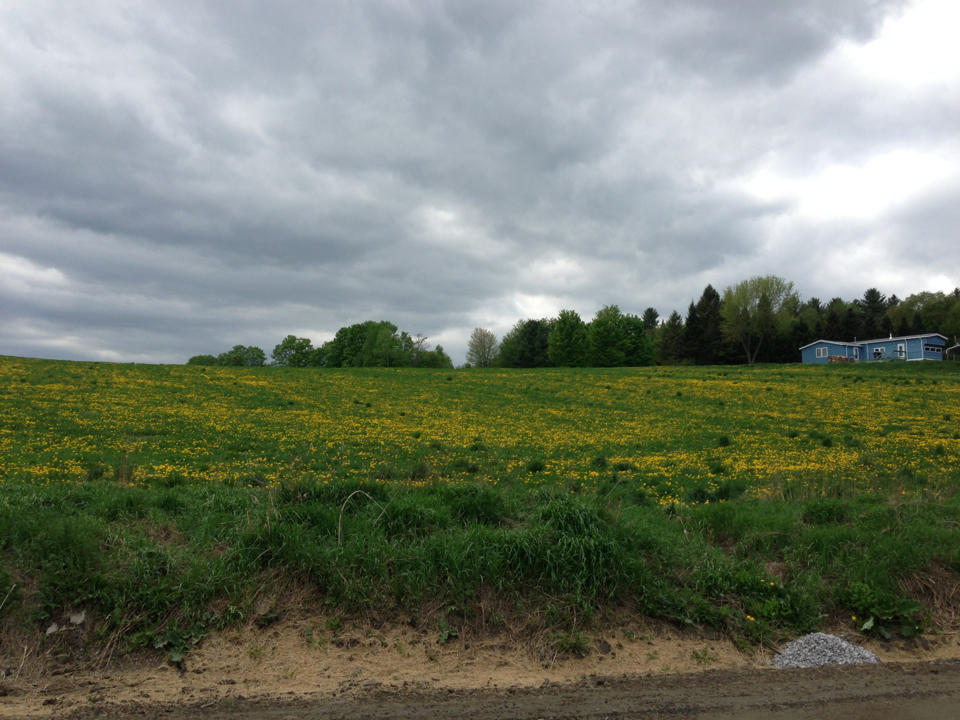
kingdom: Plantae
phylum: Tracheophyta
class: Magnoliopsida
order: Asterales
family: Asteraceae
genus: Taraxacum
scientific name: Taraxacum officinale
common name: Common dandelion
